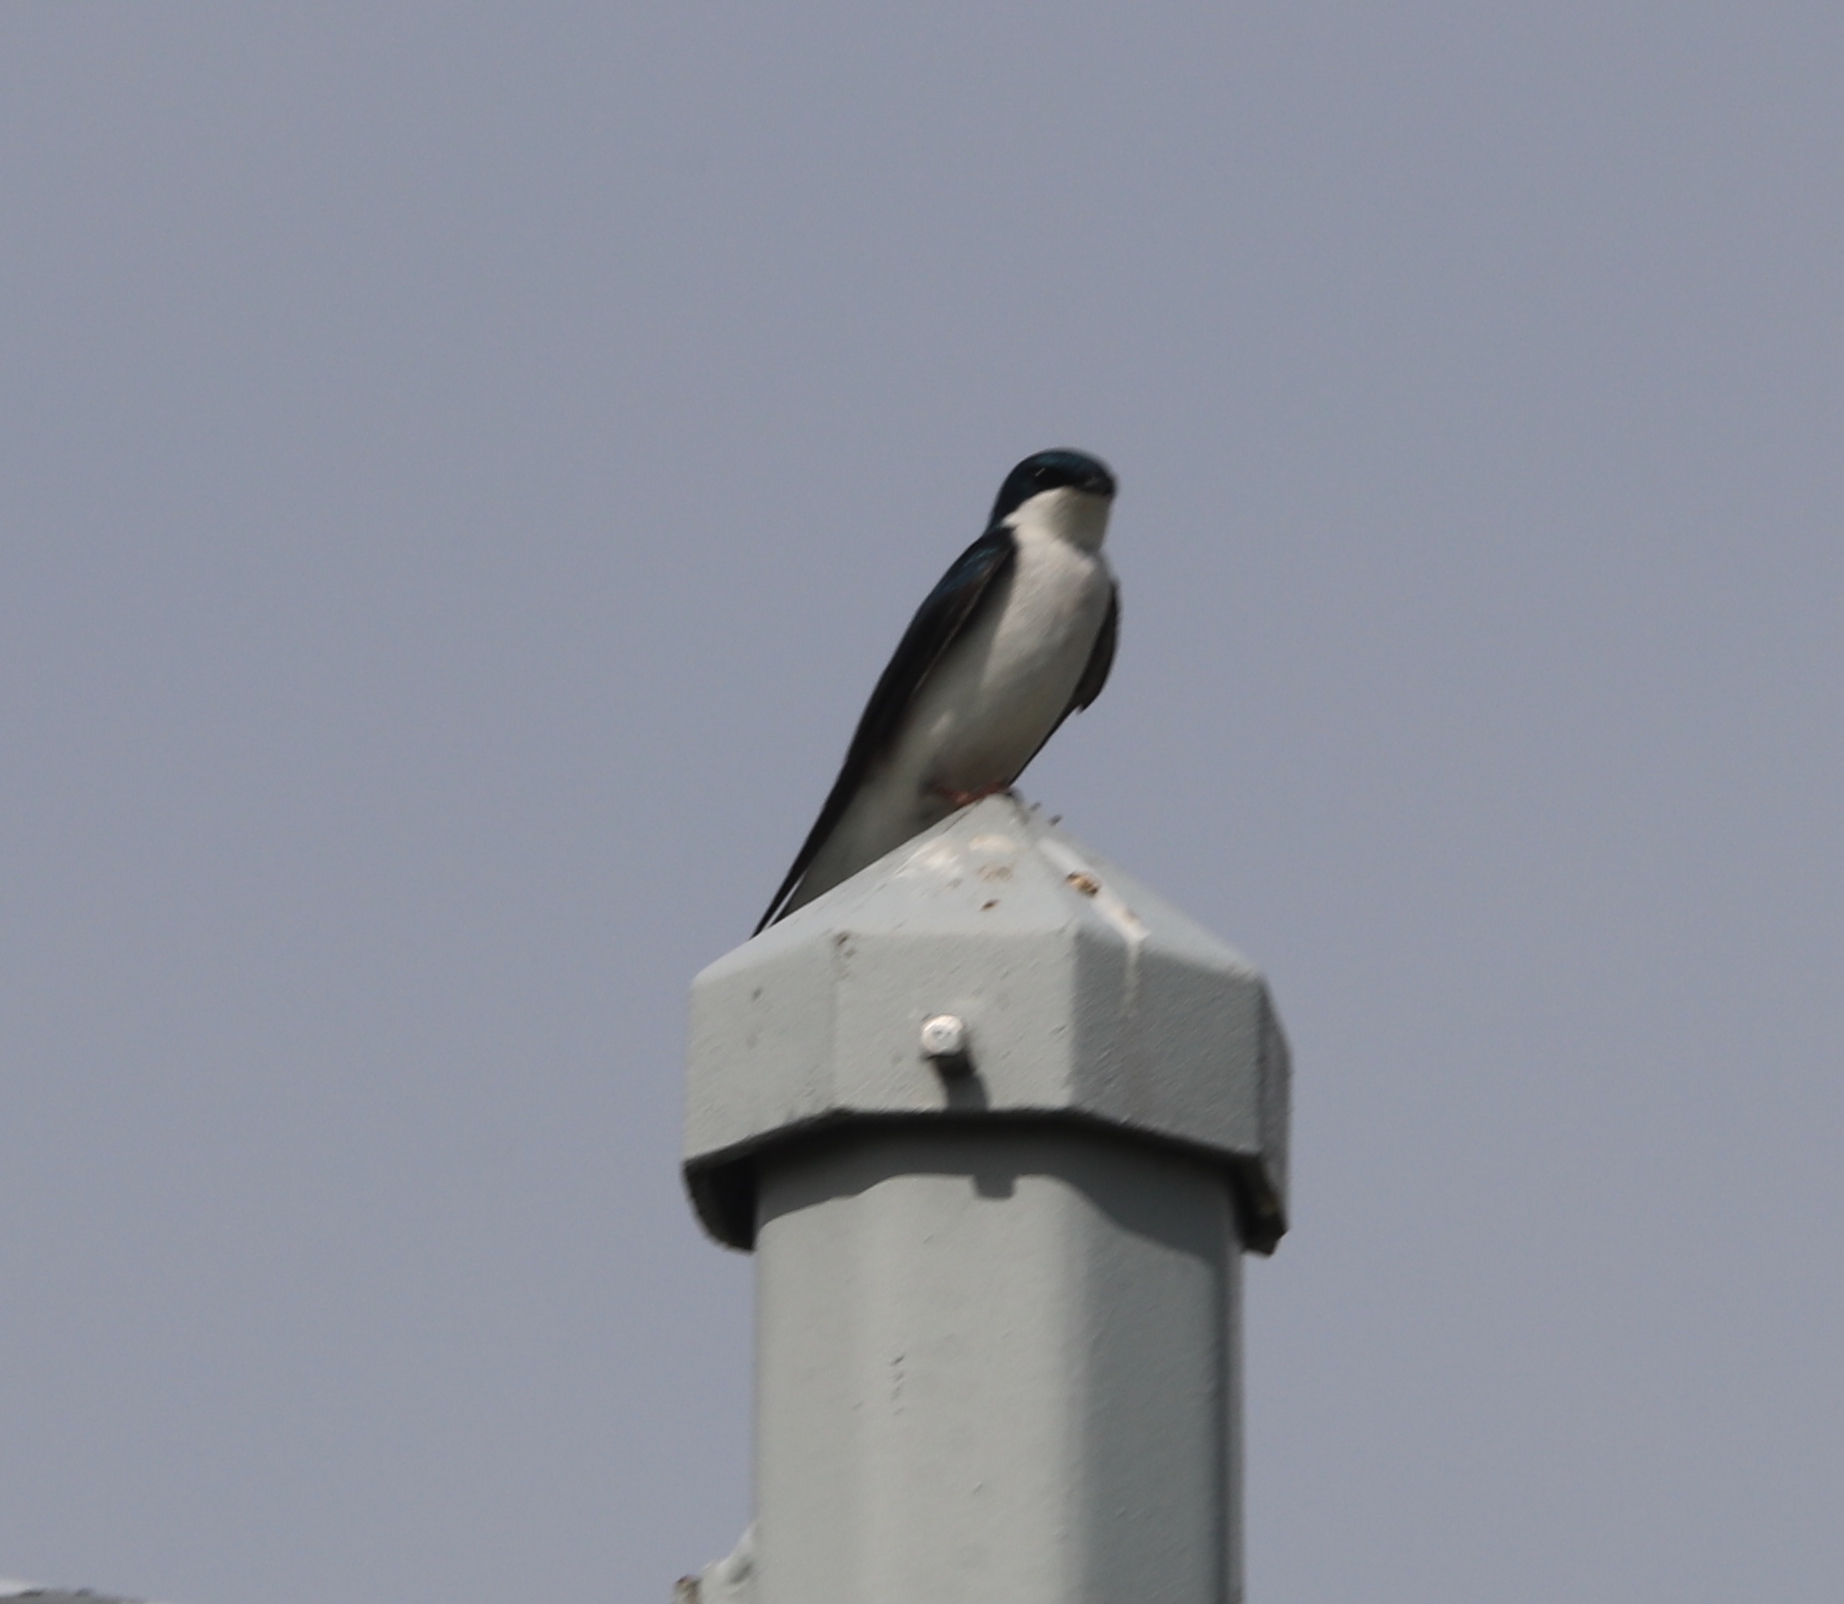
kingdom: Animalia
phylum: Chordata
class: Aves
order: Passeriformes
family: Hirundinidae
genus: Tachycineta
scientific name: Tachycineta bicolor
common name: Tree swallow
